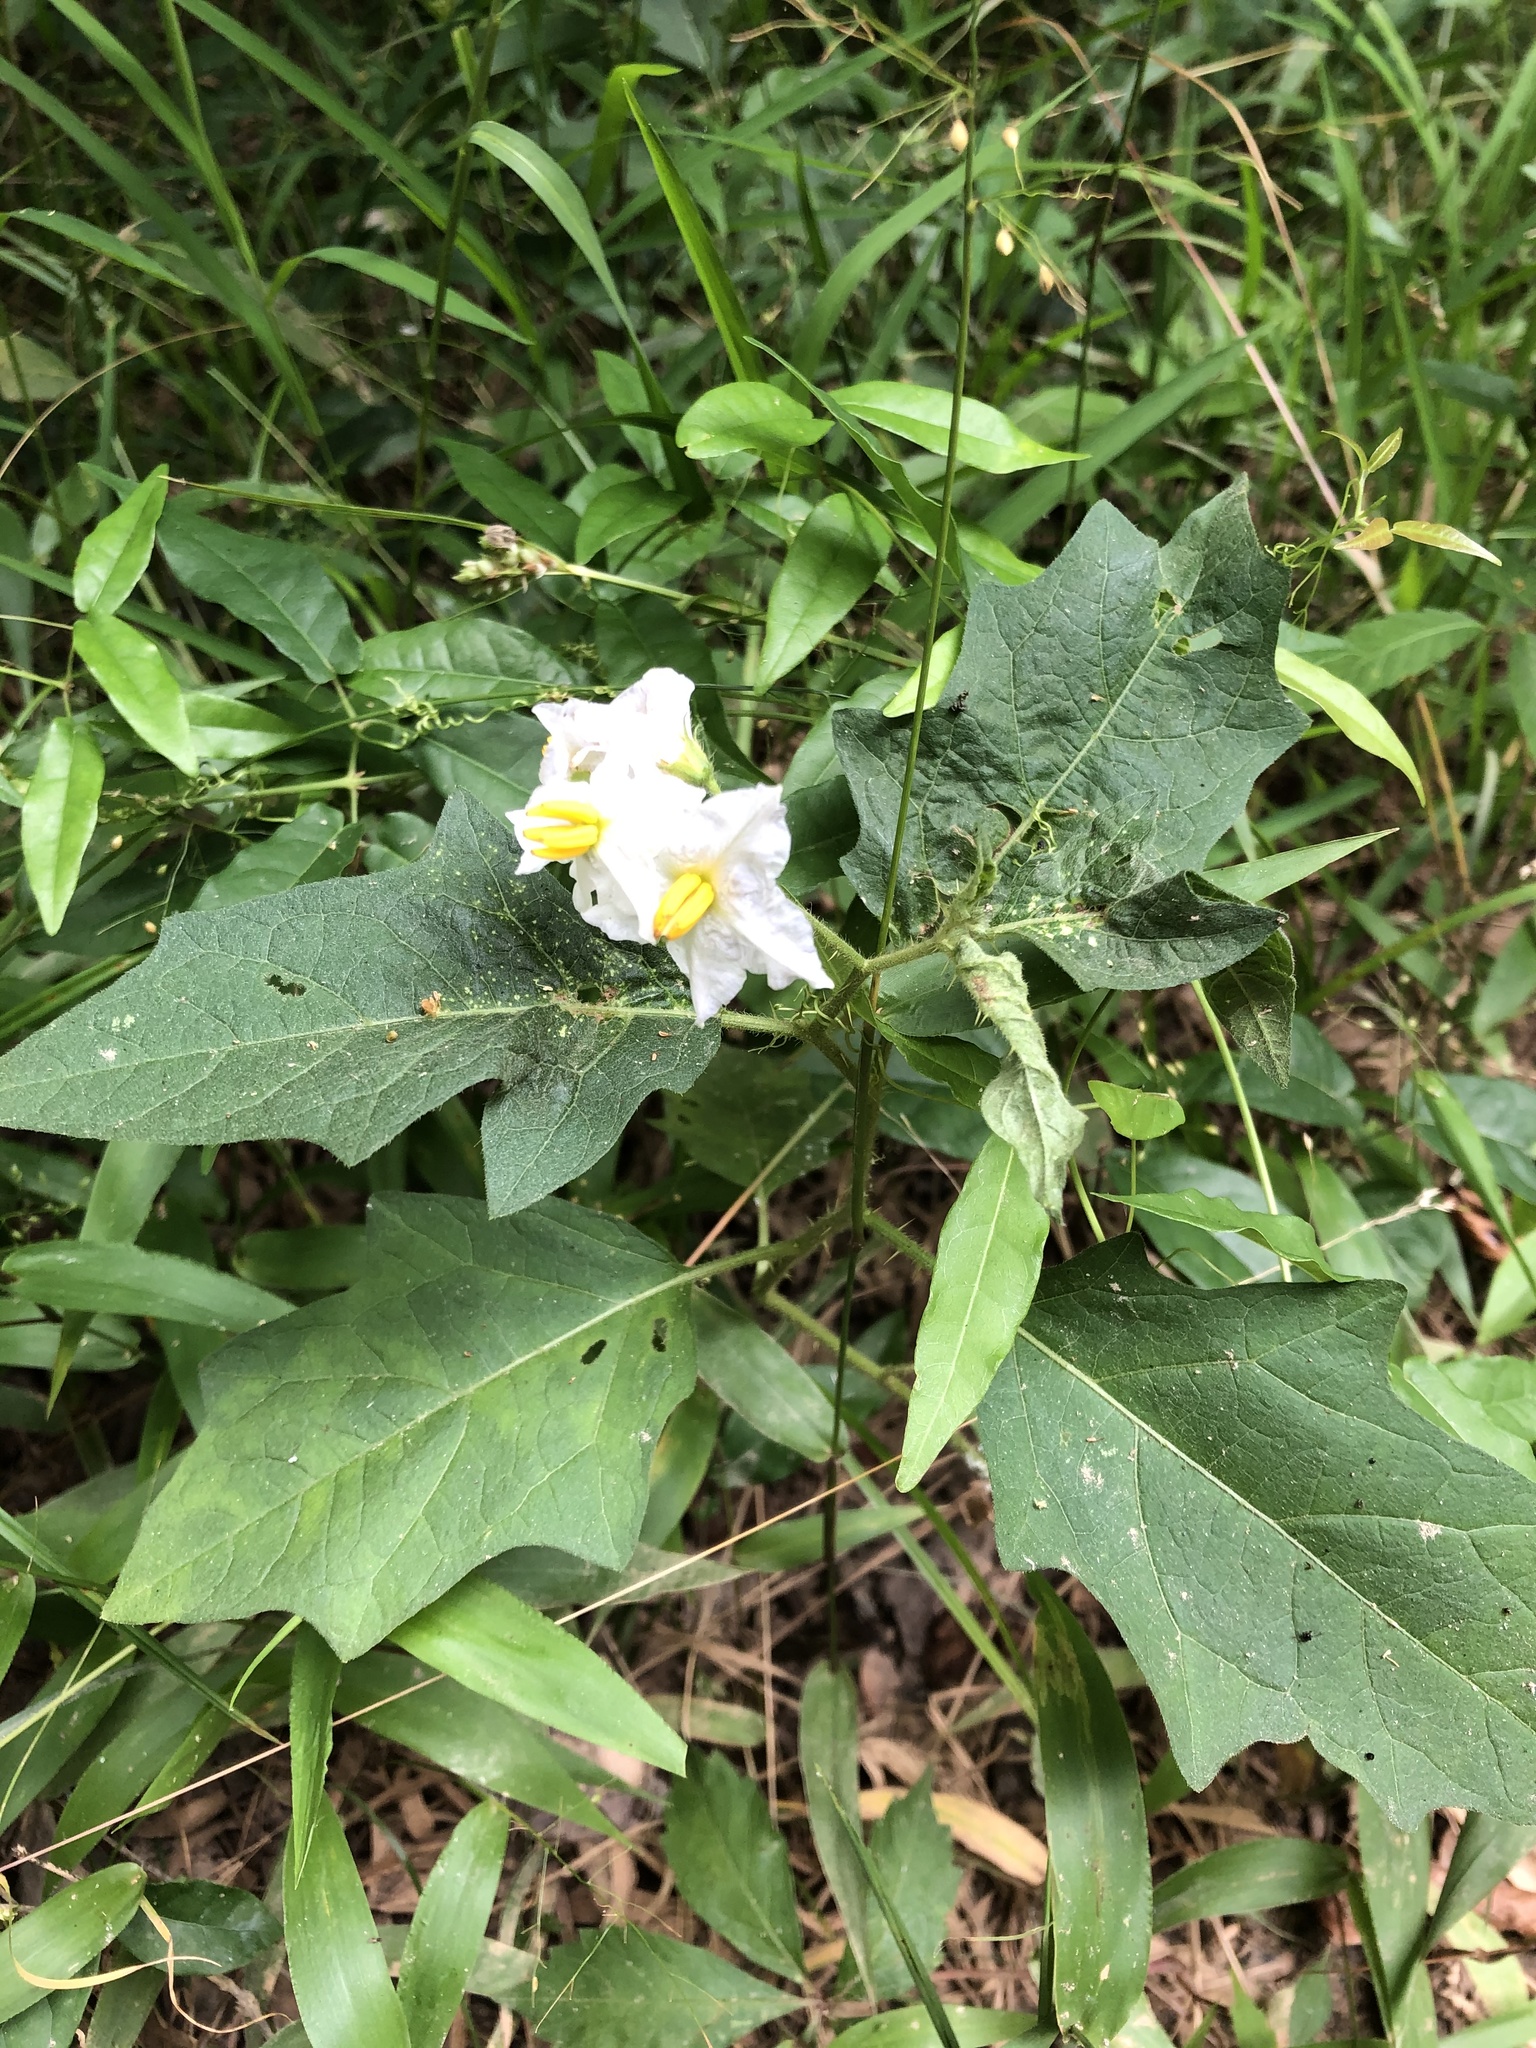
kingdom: Plantae
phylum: Tracheophyta
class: Magnoliopsida
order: Solanales
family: Solanaceae
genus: Solanum
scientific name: Solanum carolinense
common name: Horse-nettle
